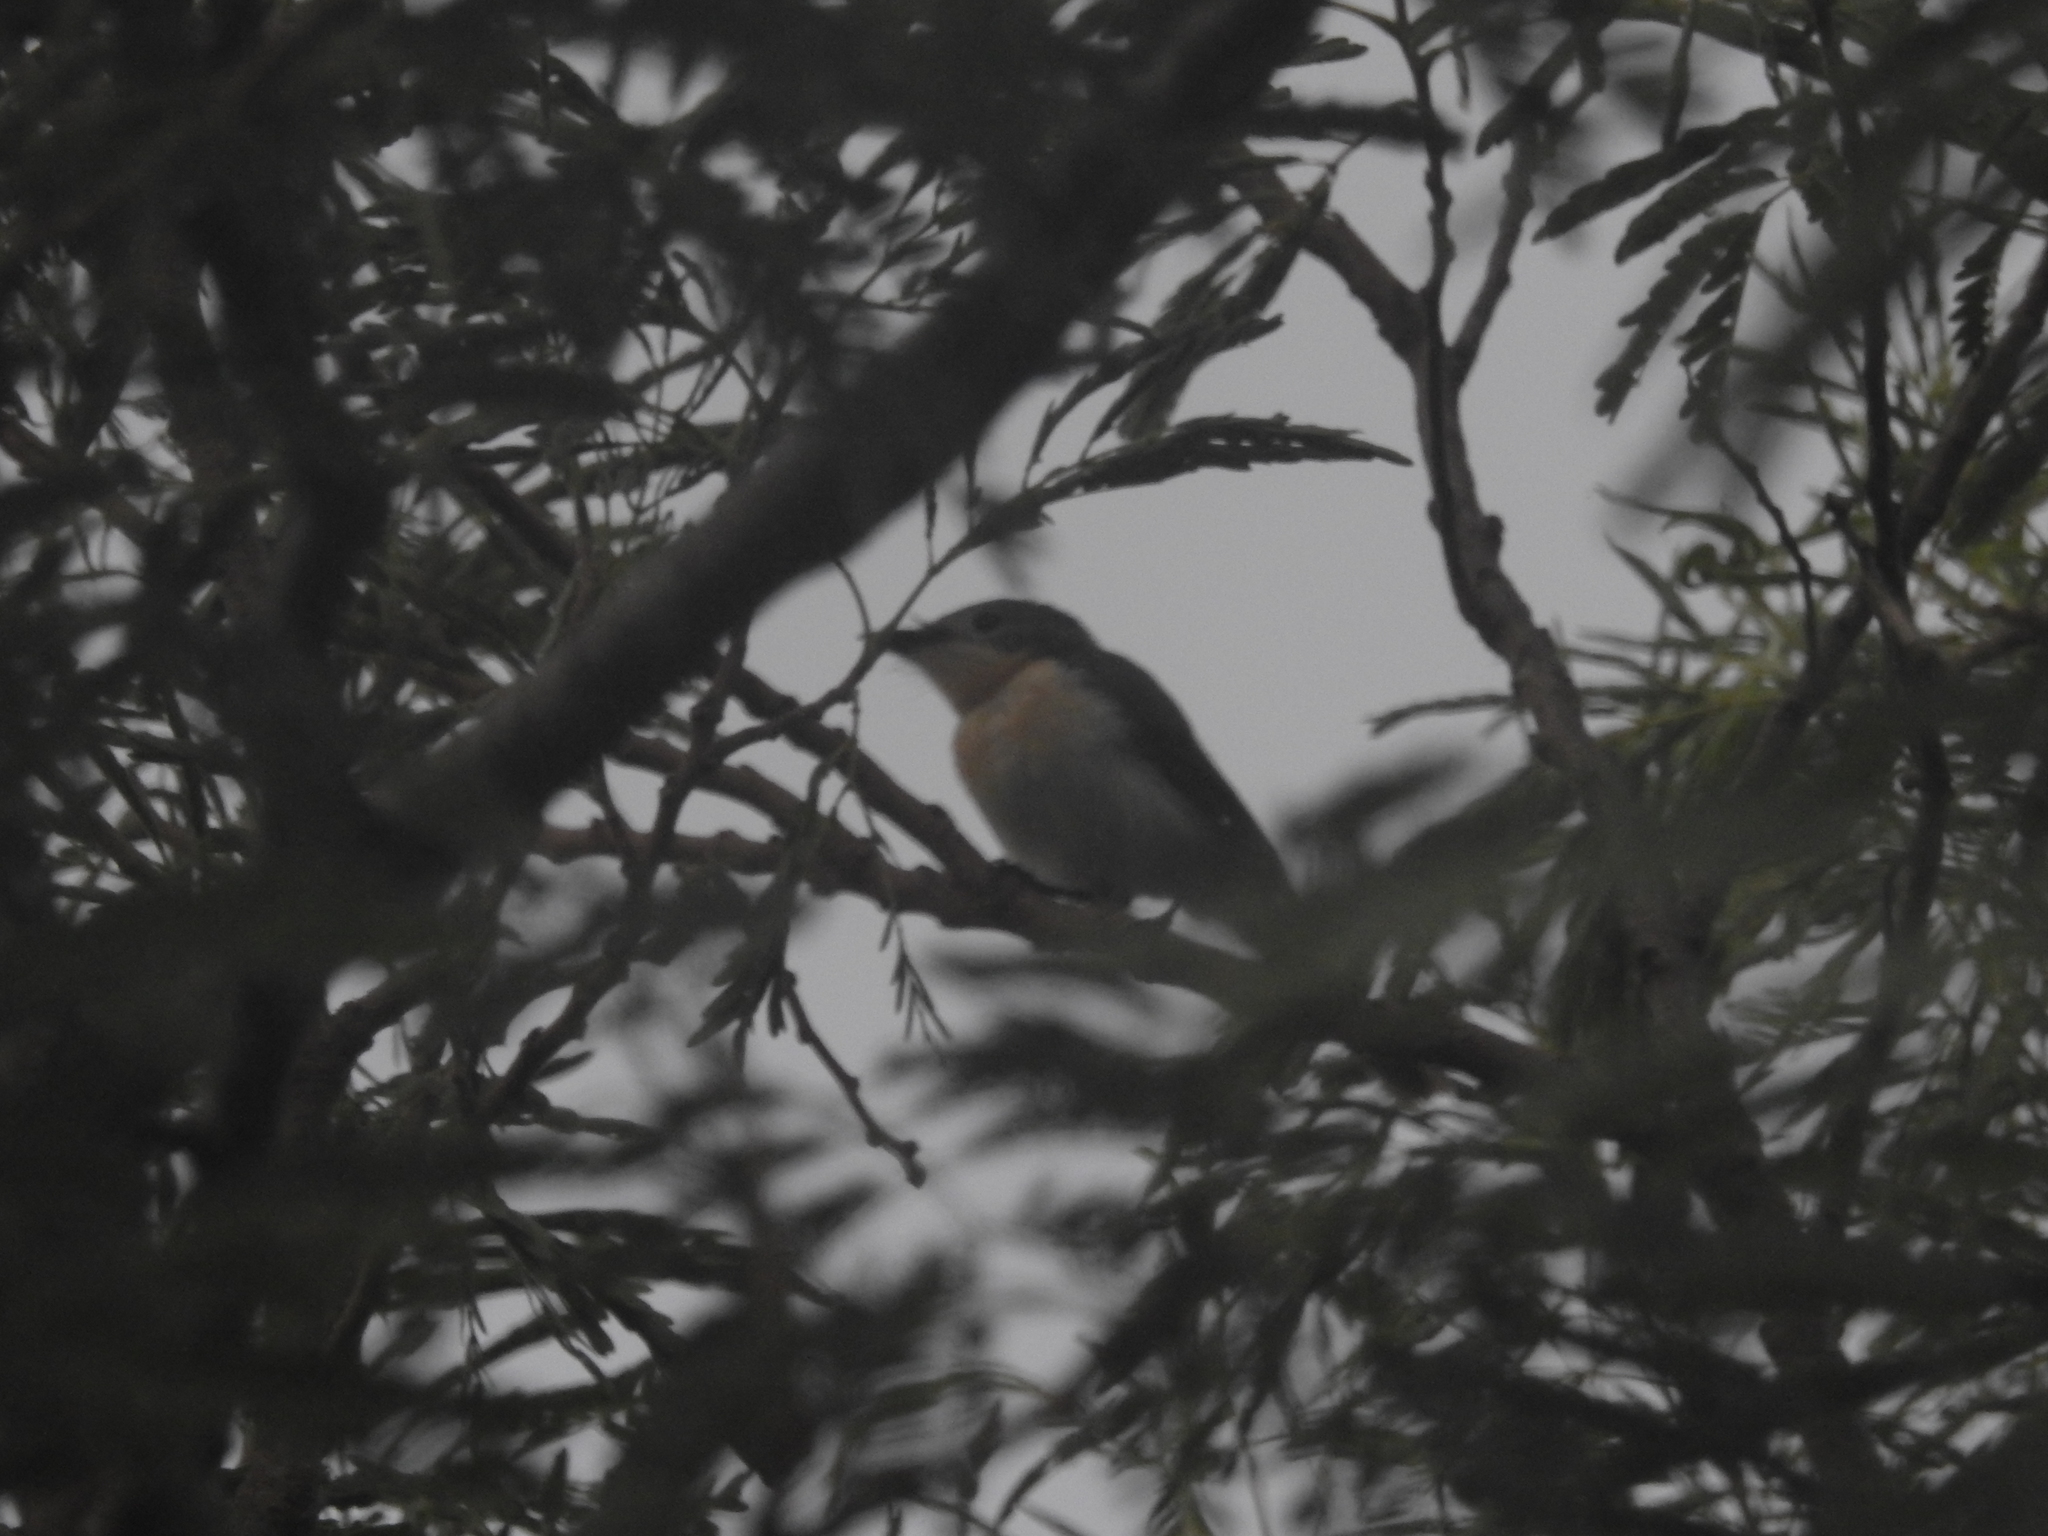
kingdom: Animalia
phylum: Chordata
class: Aves
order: Passeriformes
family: Monarchidae
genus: Myiagra
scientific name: Myiagra ruficollis
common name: Broad-billed flycatcher
